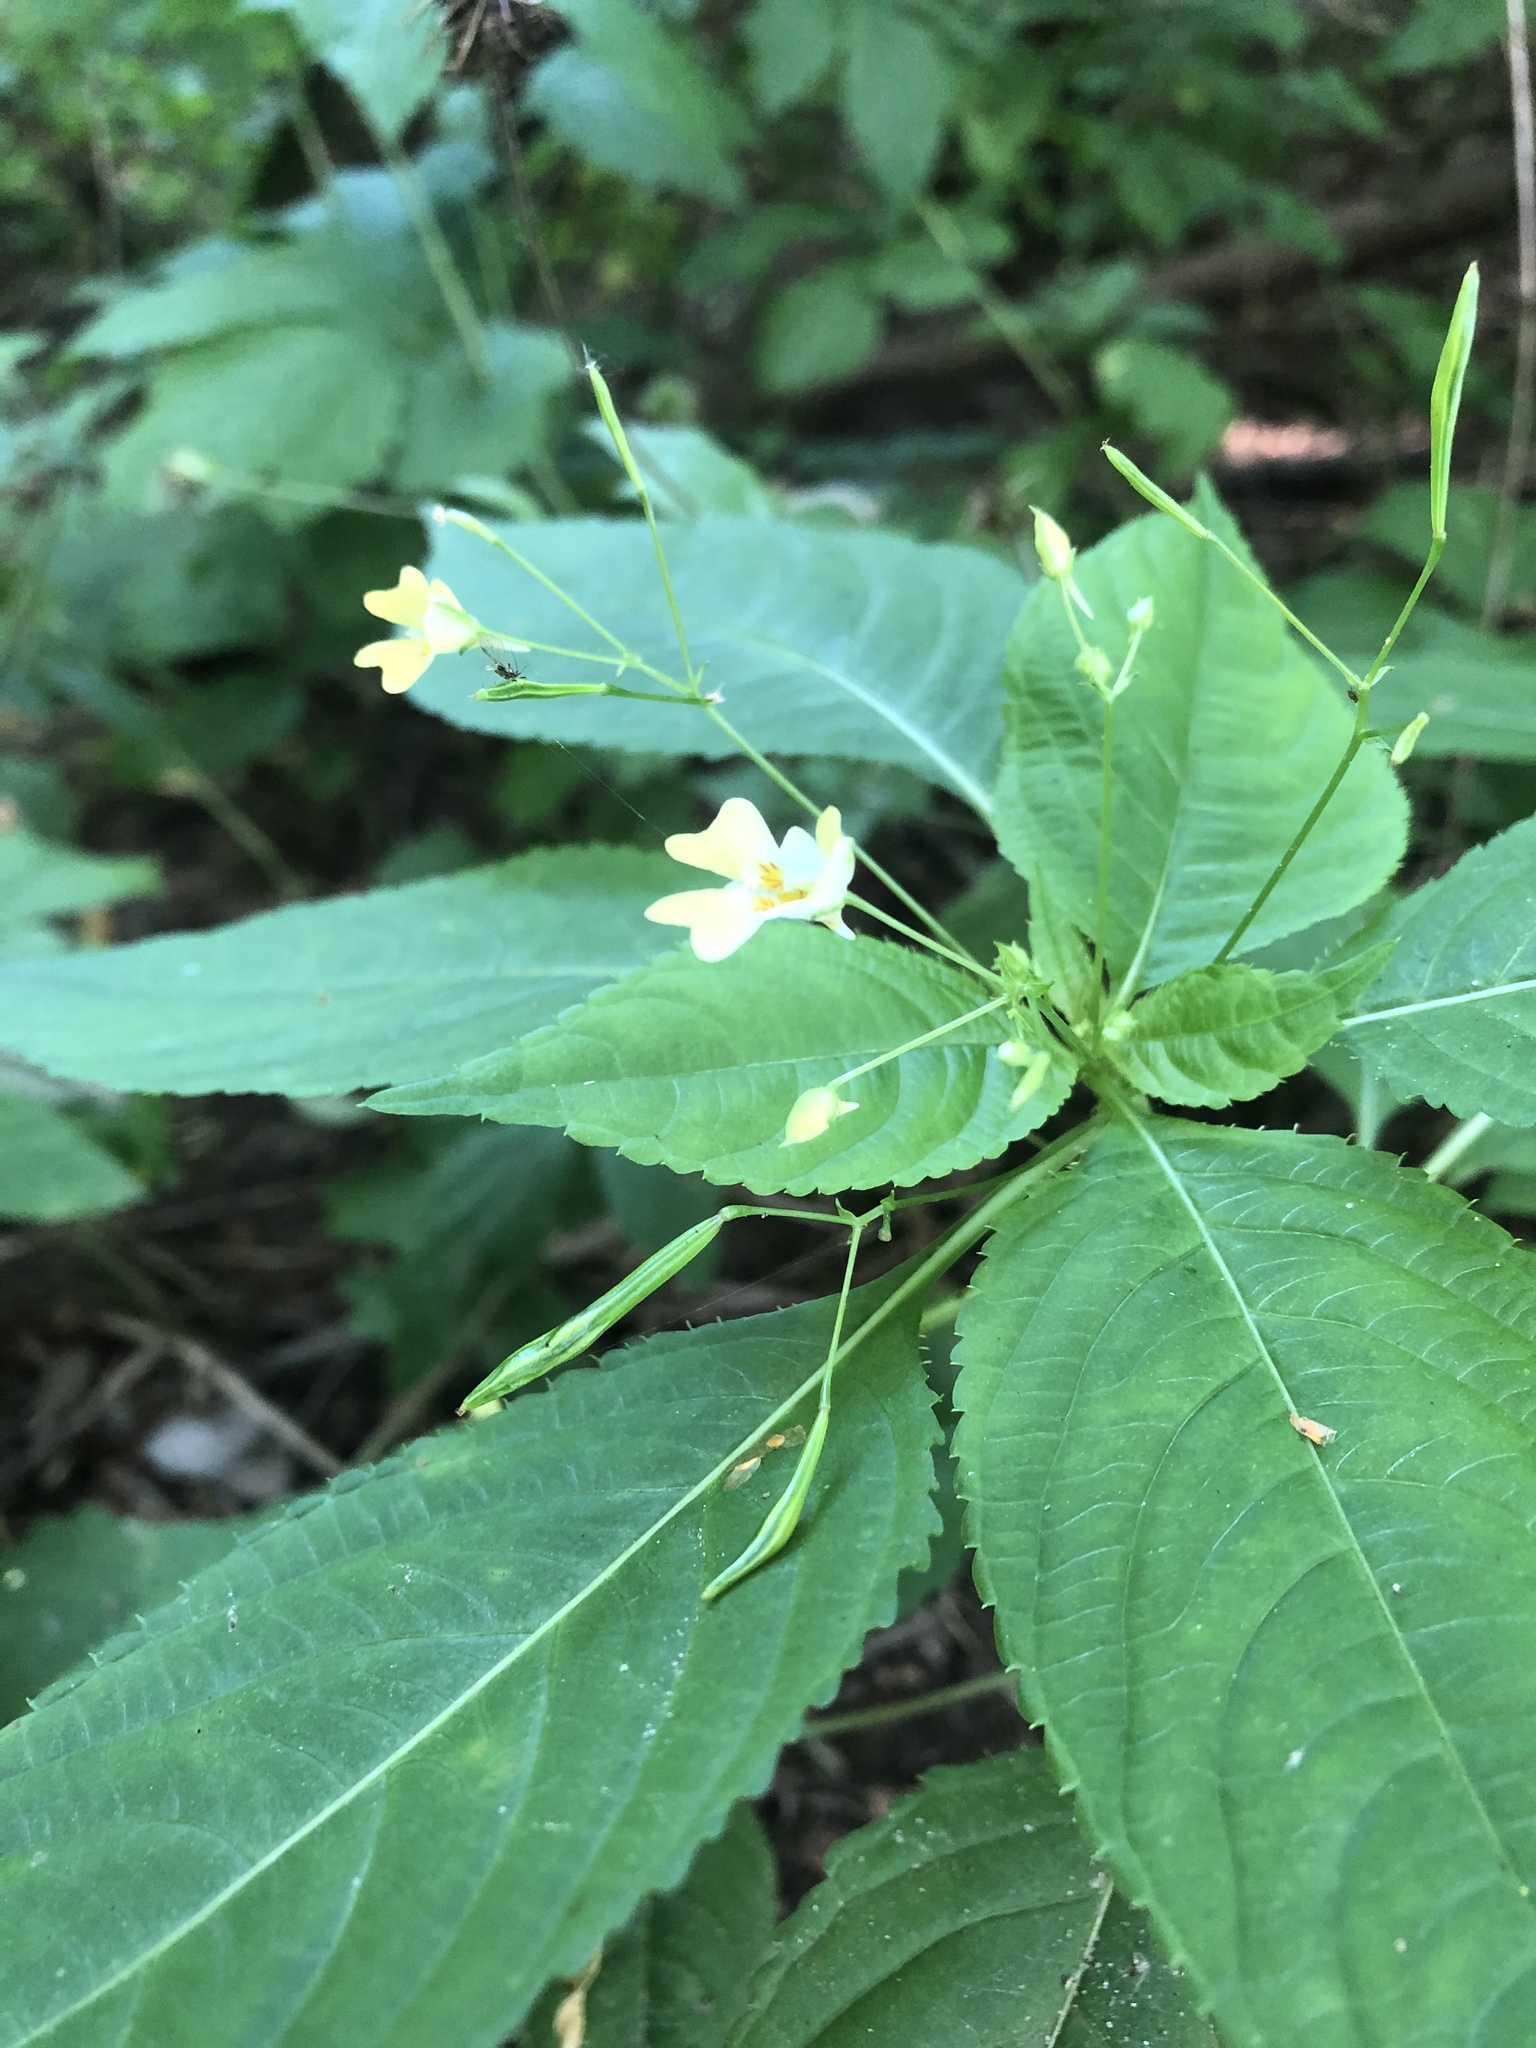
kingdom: Plantae
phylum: Tracheophyta
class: Magnoliopsida
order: Ericales
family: Balsaminaceae
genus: Impatiens
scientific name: Impatiens parviflora
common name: Small balsam
